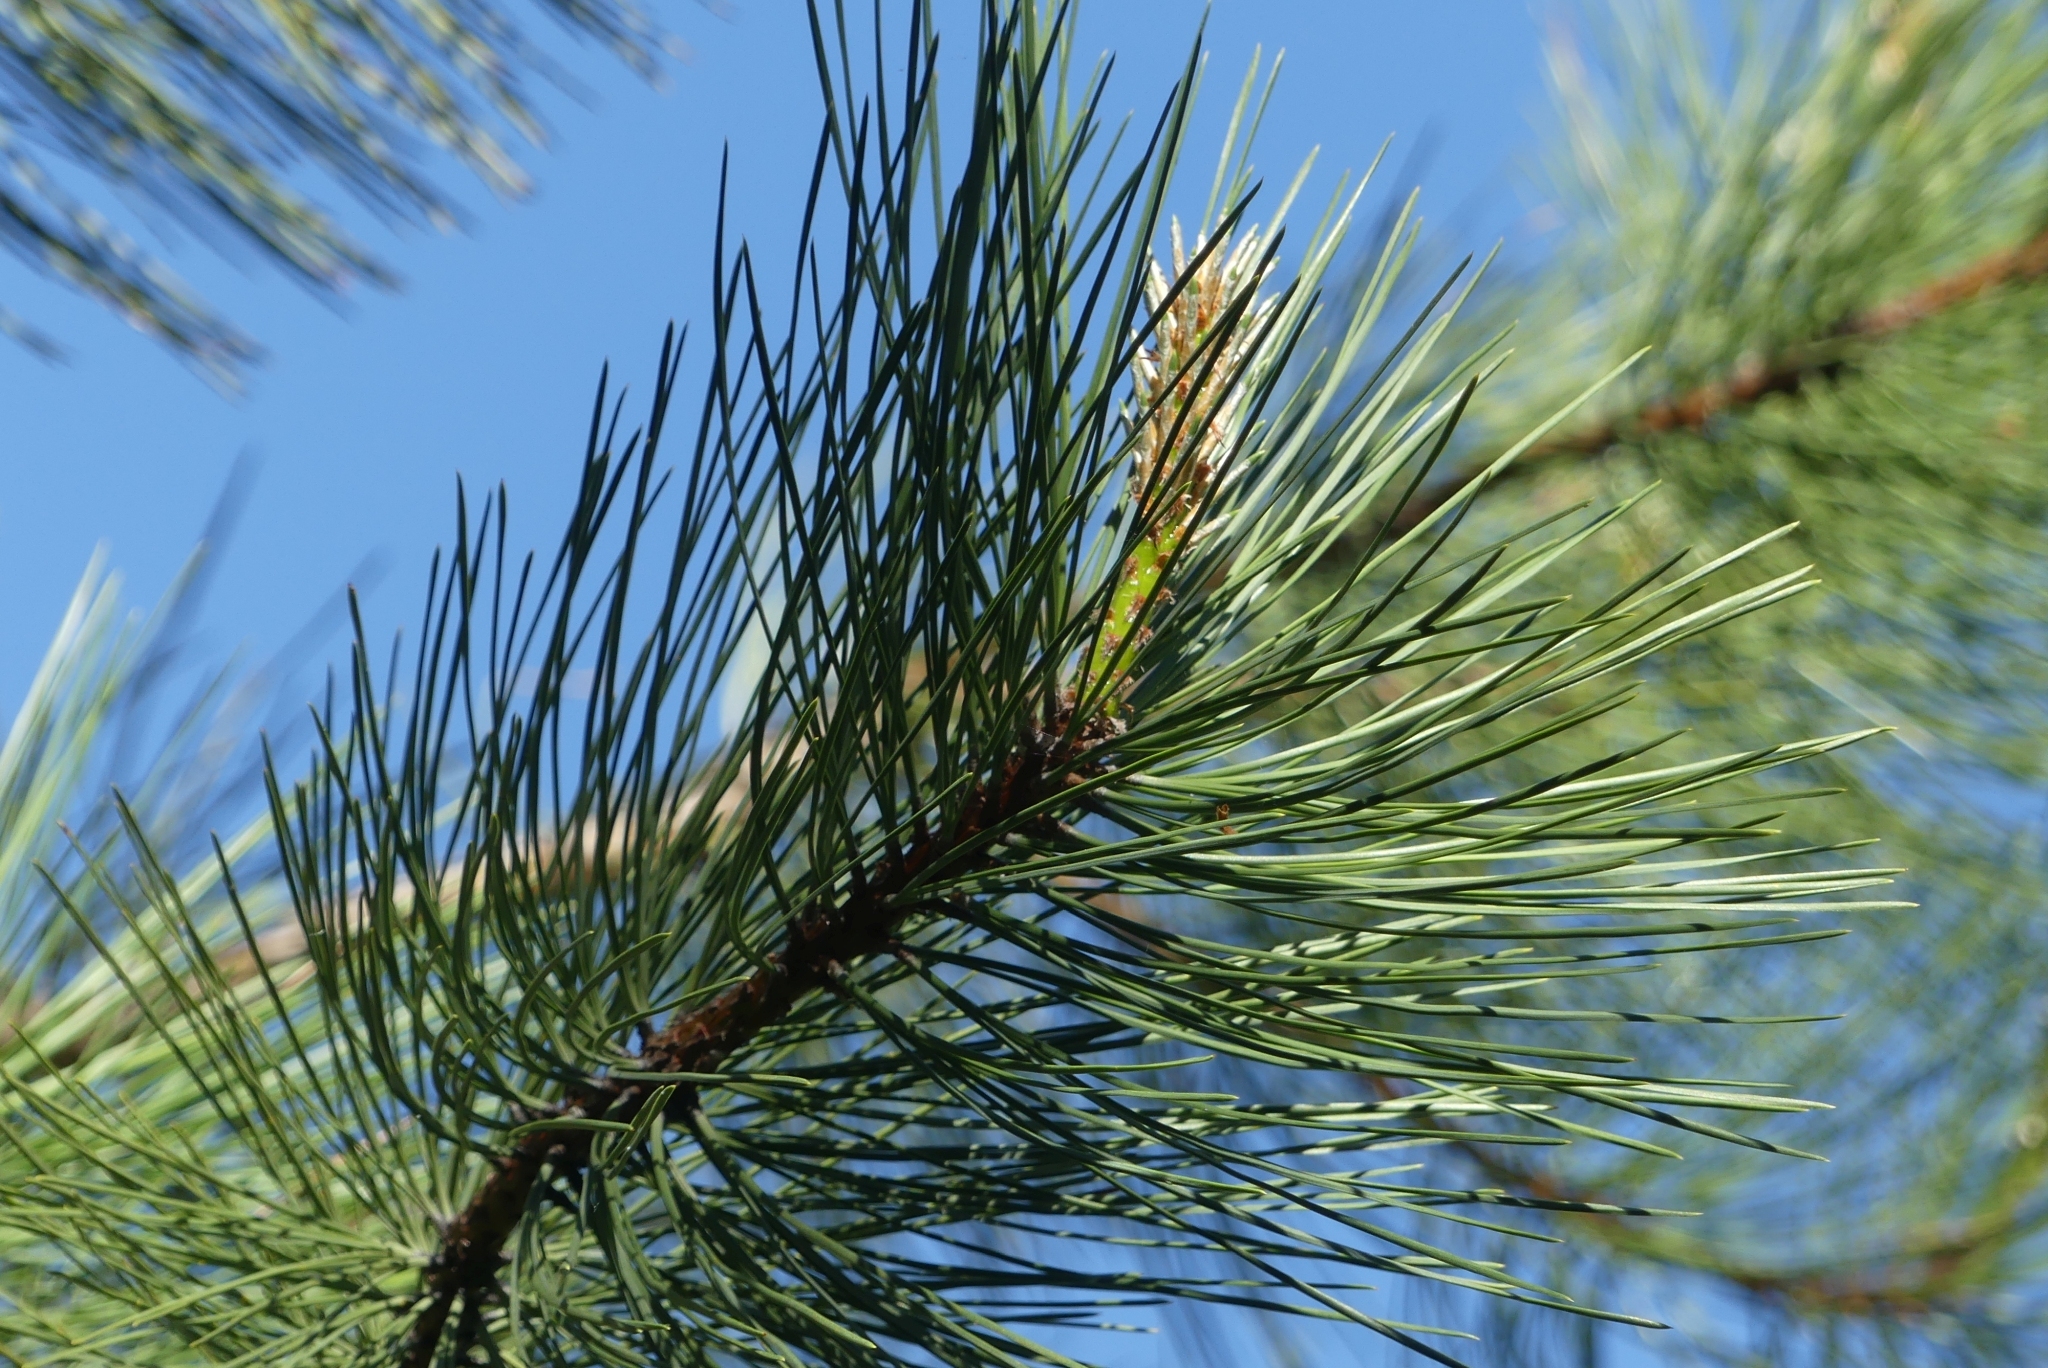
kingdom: Plantae
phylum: Tracheophyta
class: Pinopsida
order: Pinales
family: Pinaceae
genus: Pinus
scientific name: Pinus ponderosa
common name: Western yellow-pine
